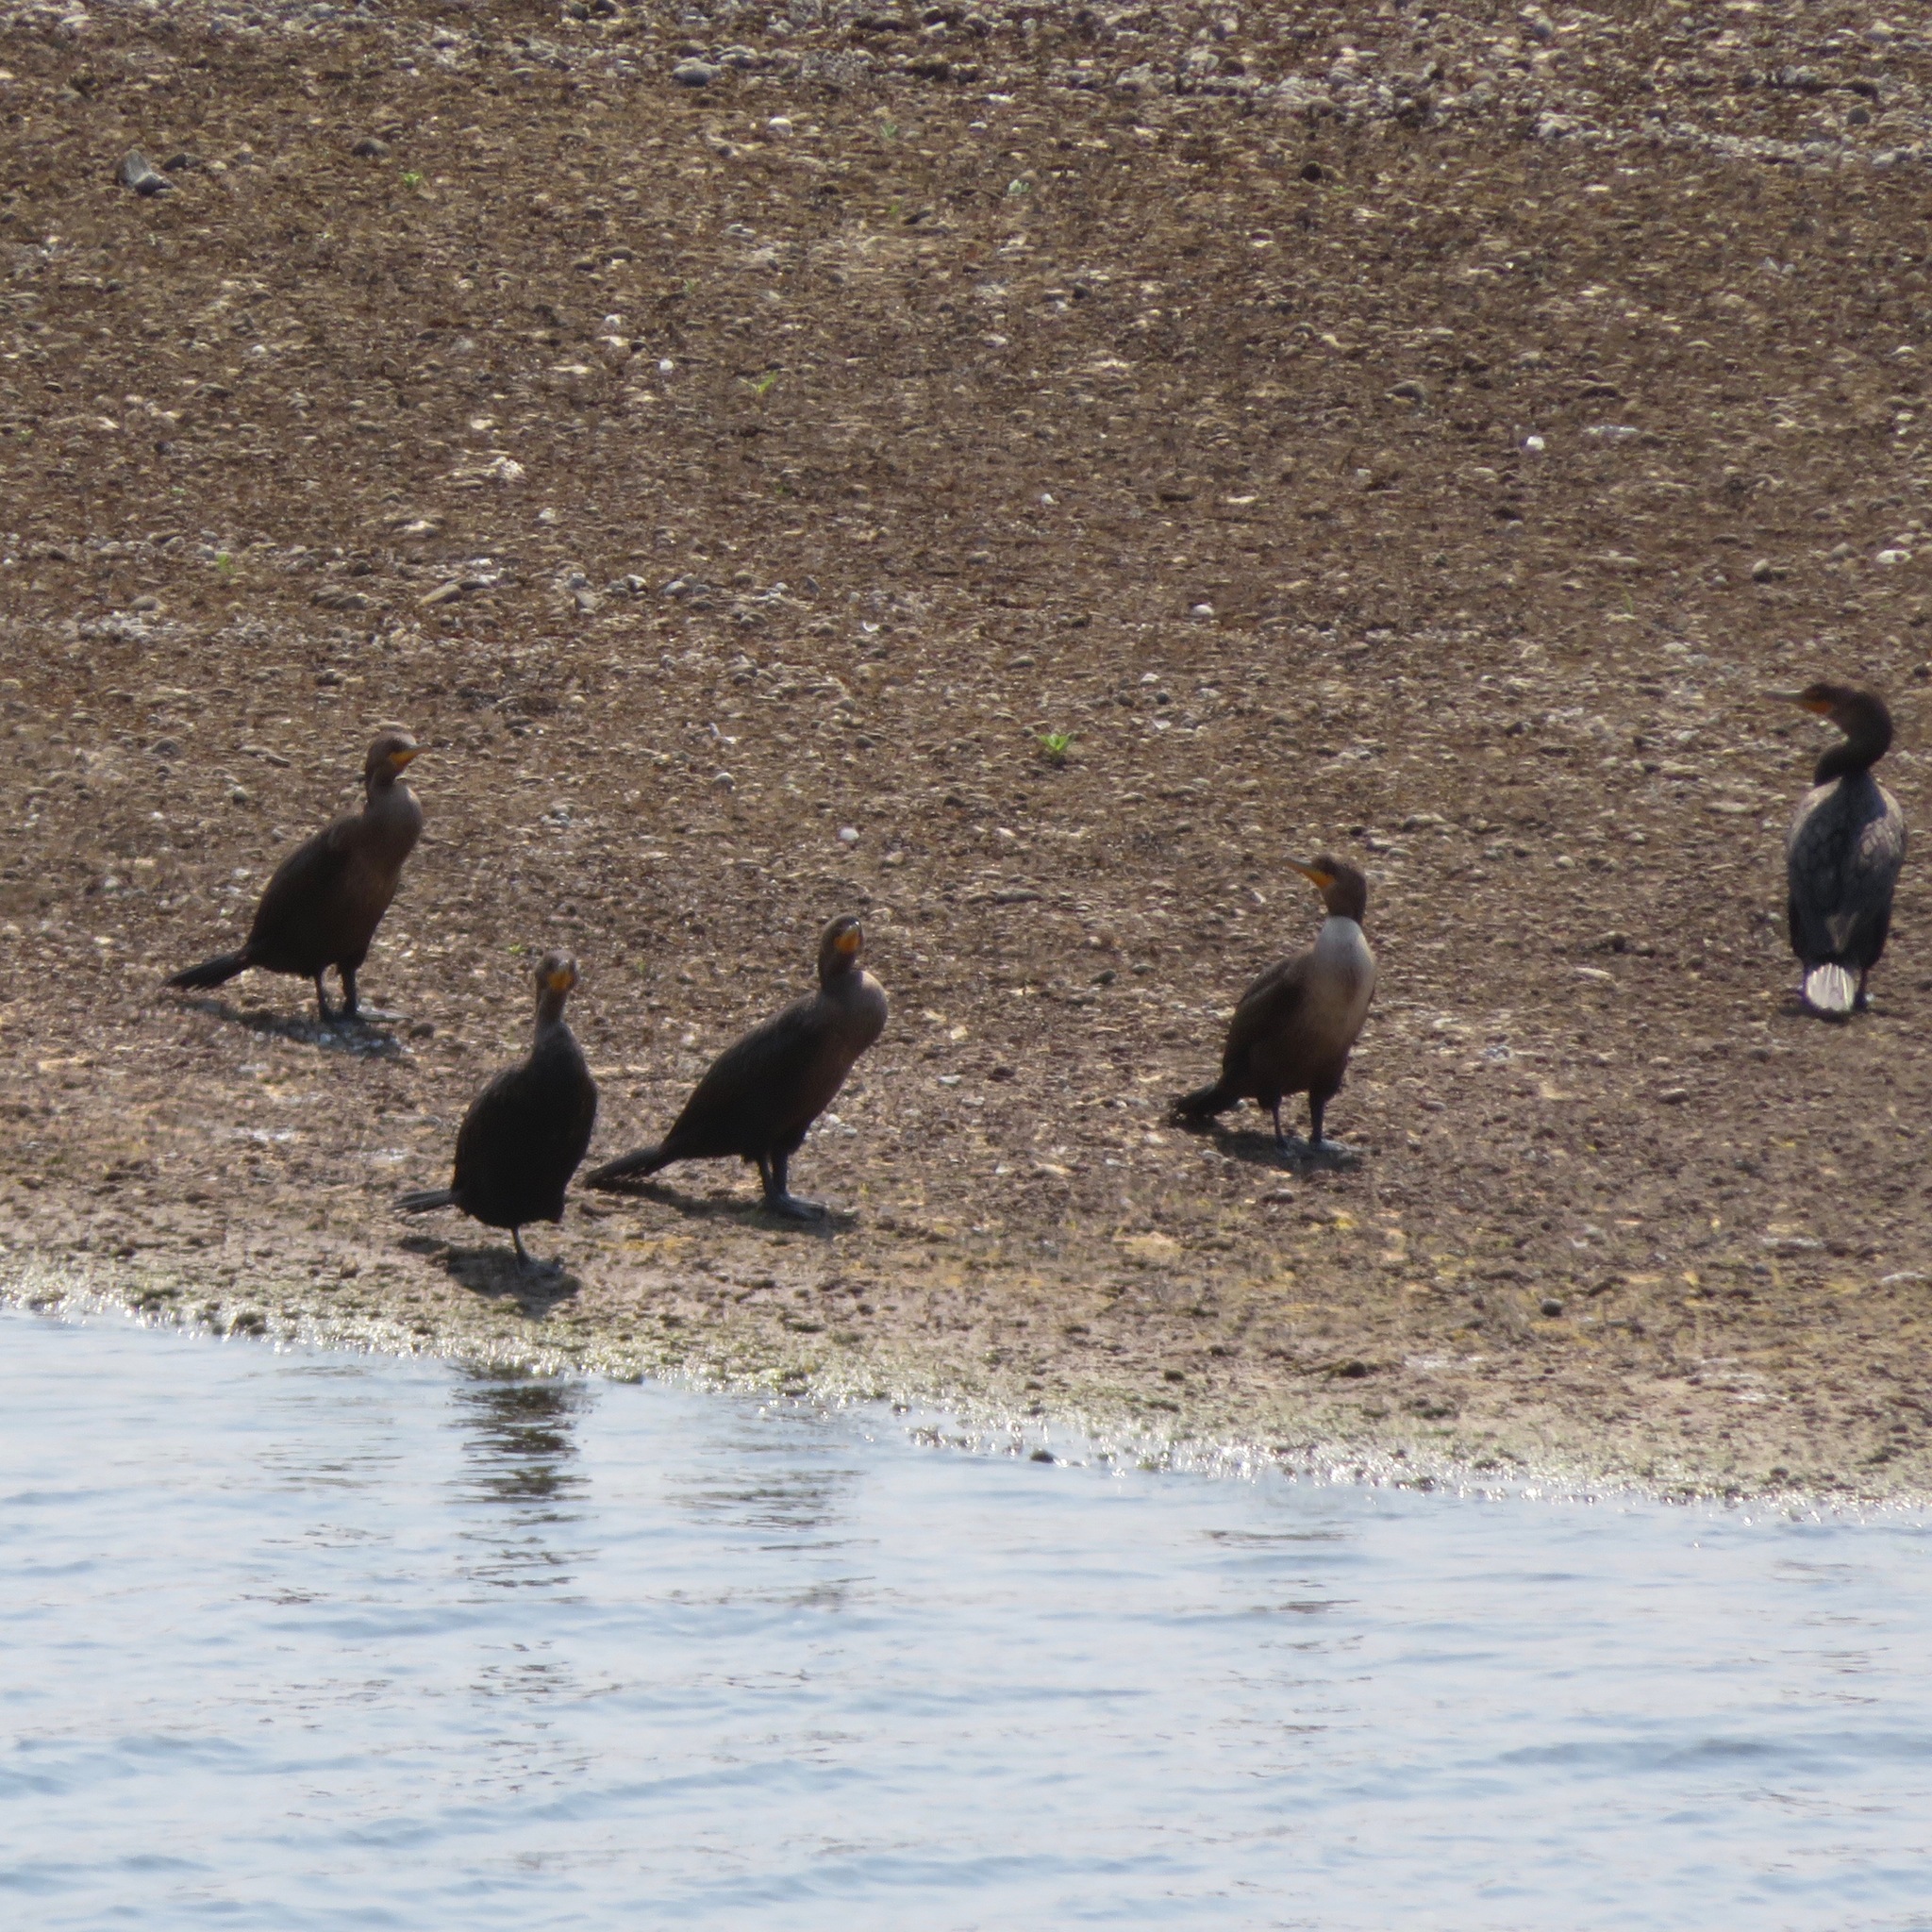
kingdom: Animalia
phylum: Chordata
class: Aves
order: Suliformes
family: Phalacrocoracidae
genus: Phalacrocorax
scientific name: Phalacrocorax auritus
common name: Double-crested cormorant
